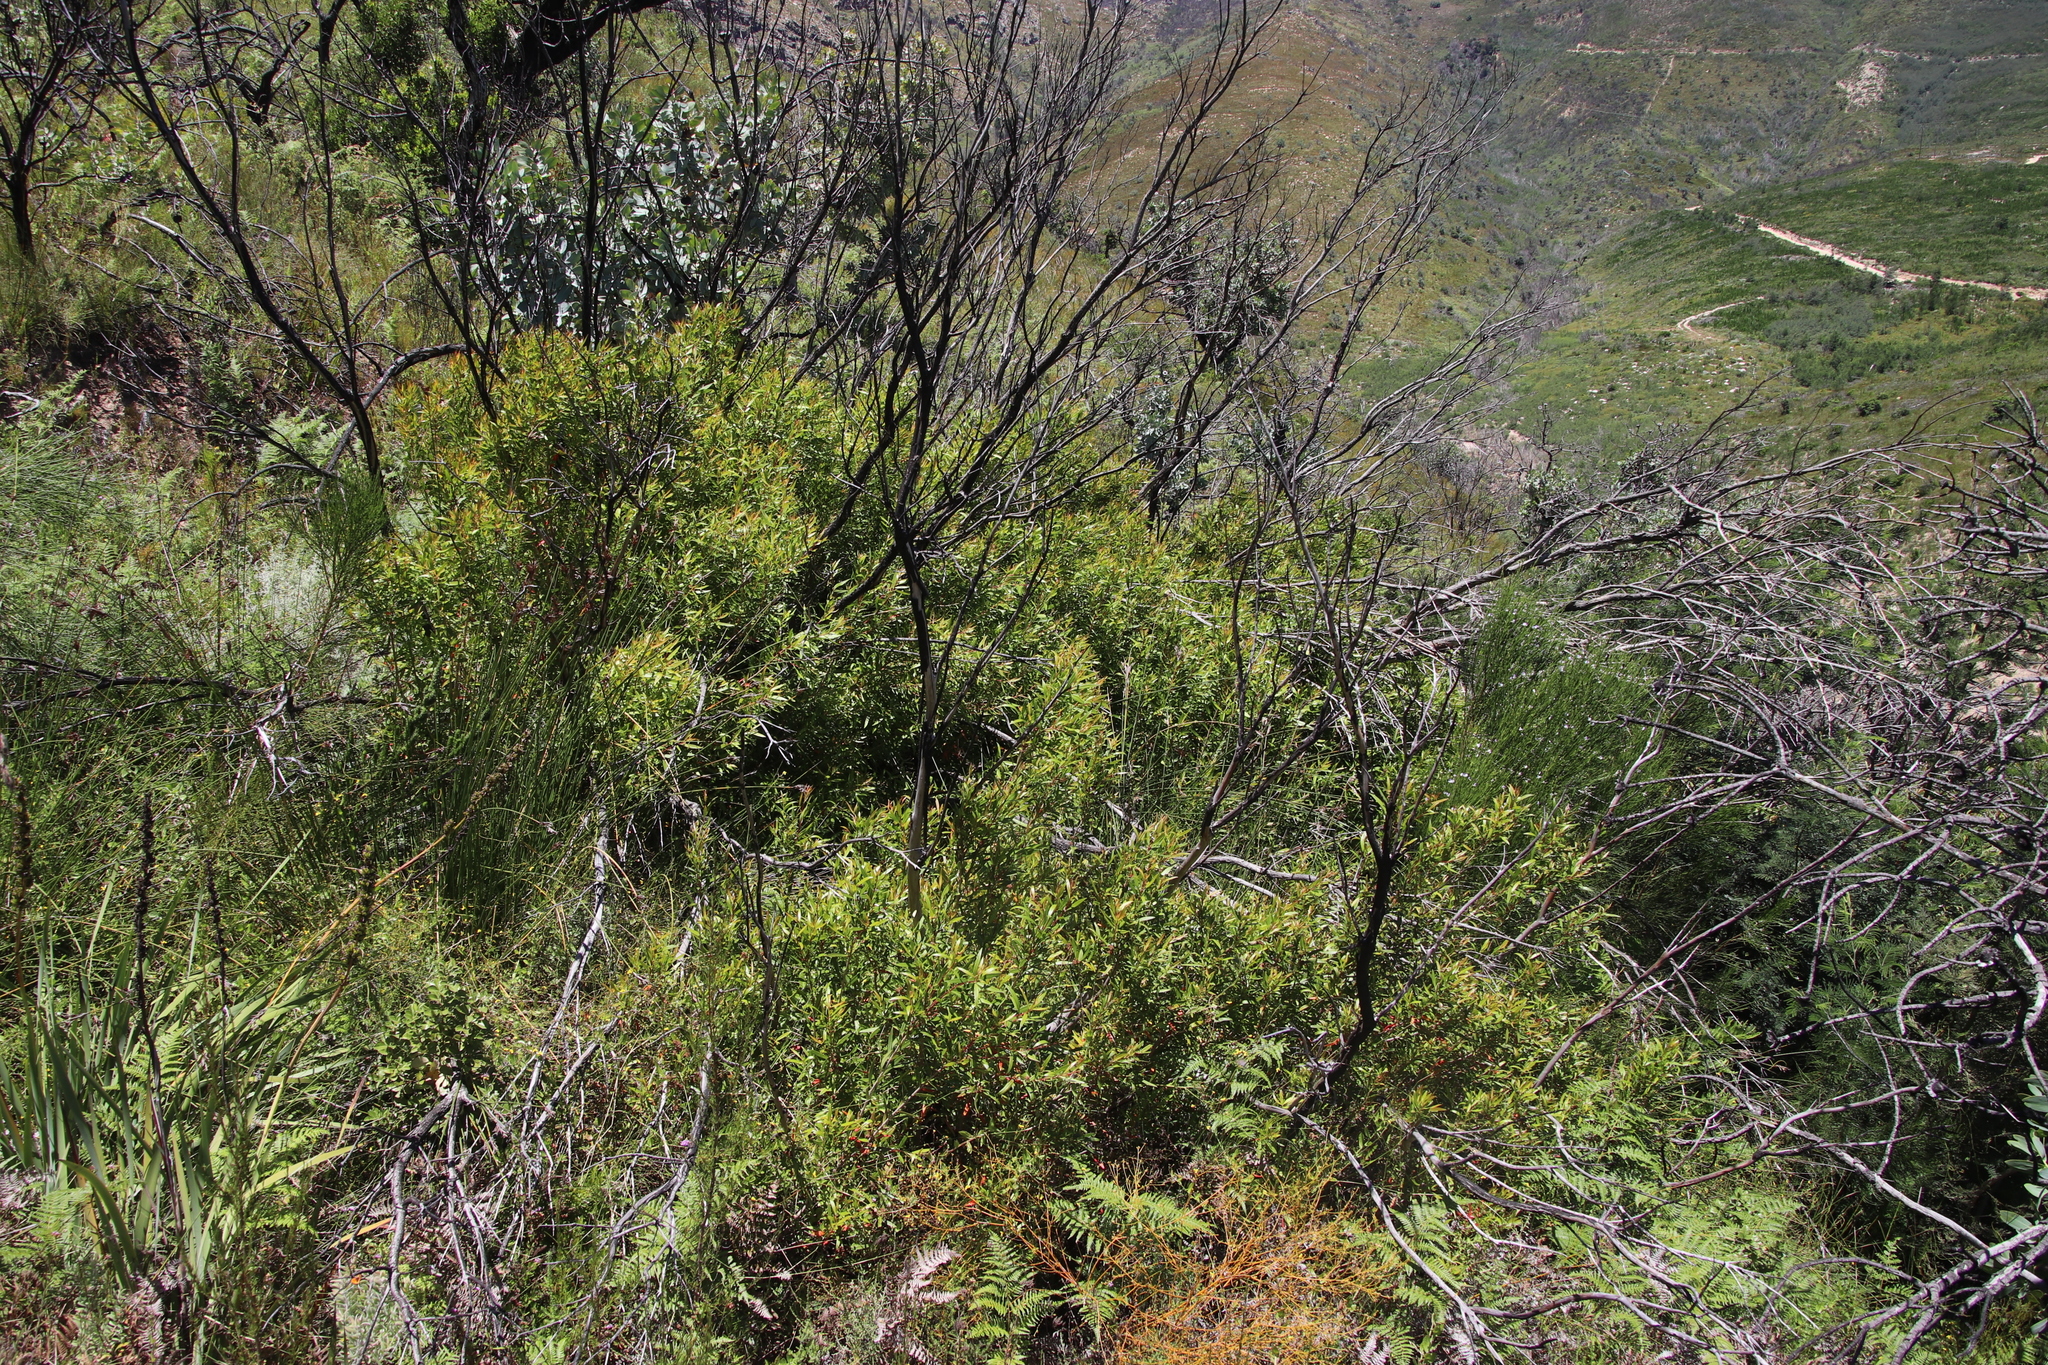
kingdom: Plantae
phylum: Tracheophyta
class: Magnoliopsida
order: Myrtales
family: Myrtaceae
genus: Callistemon
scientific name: Callistemon lanceolatus
